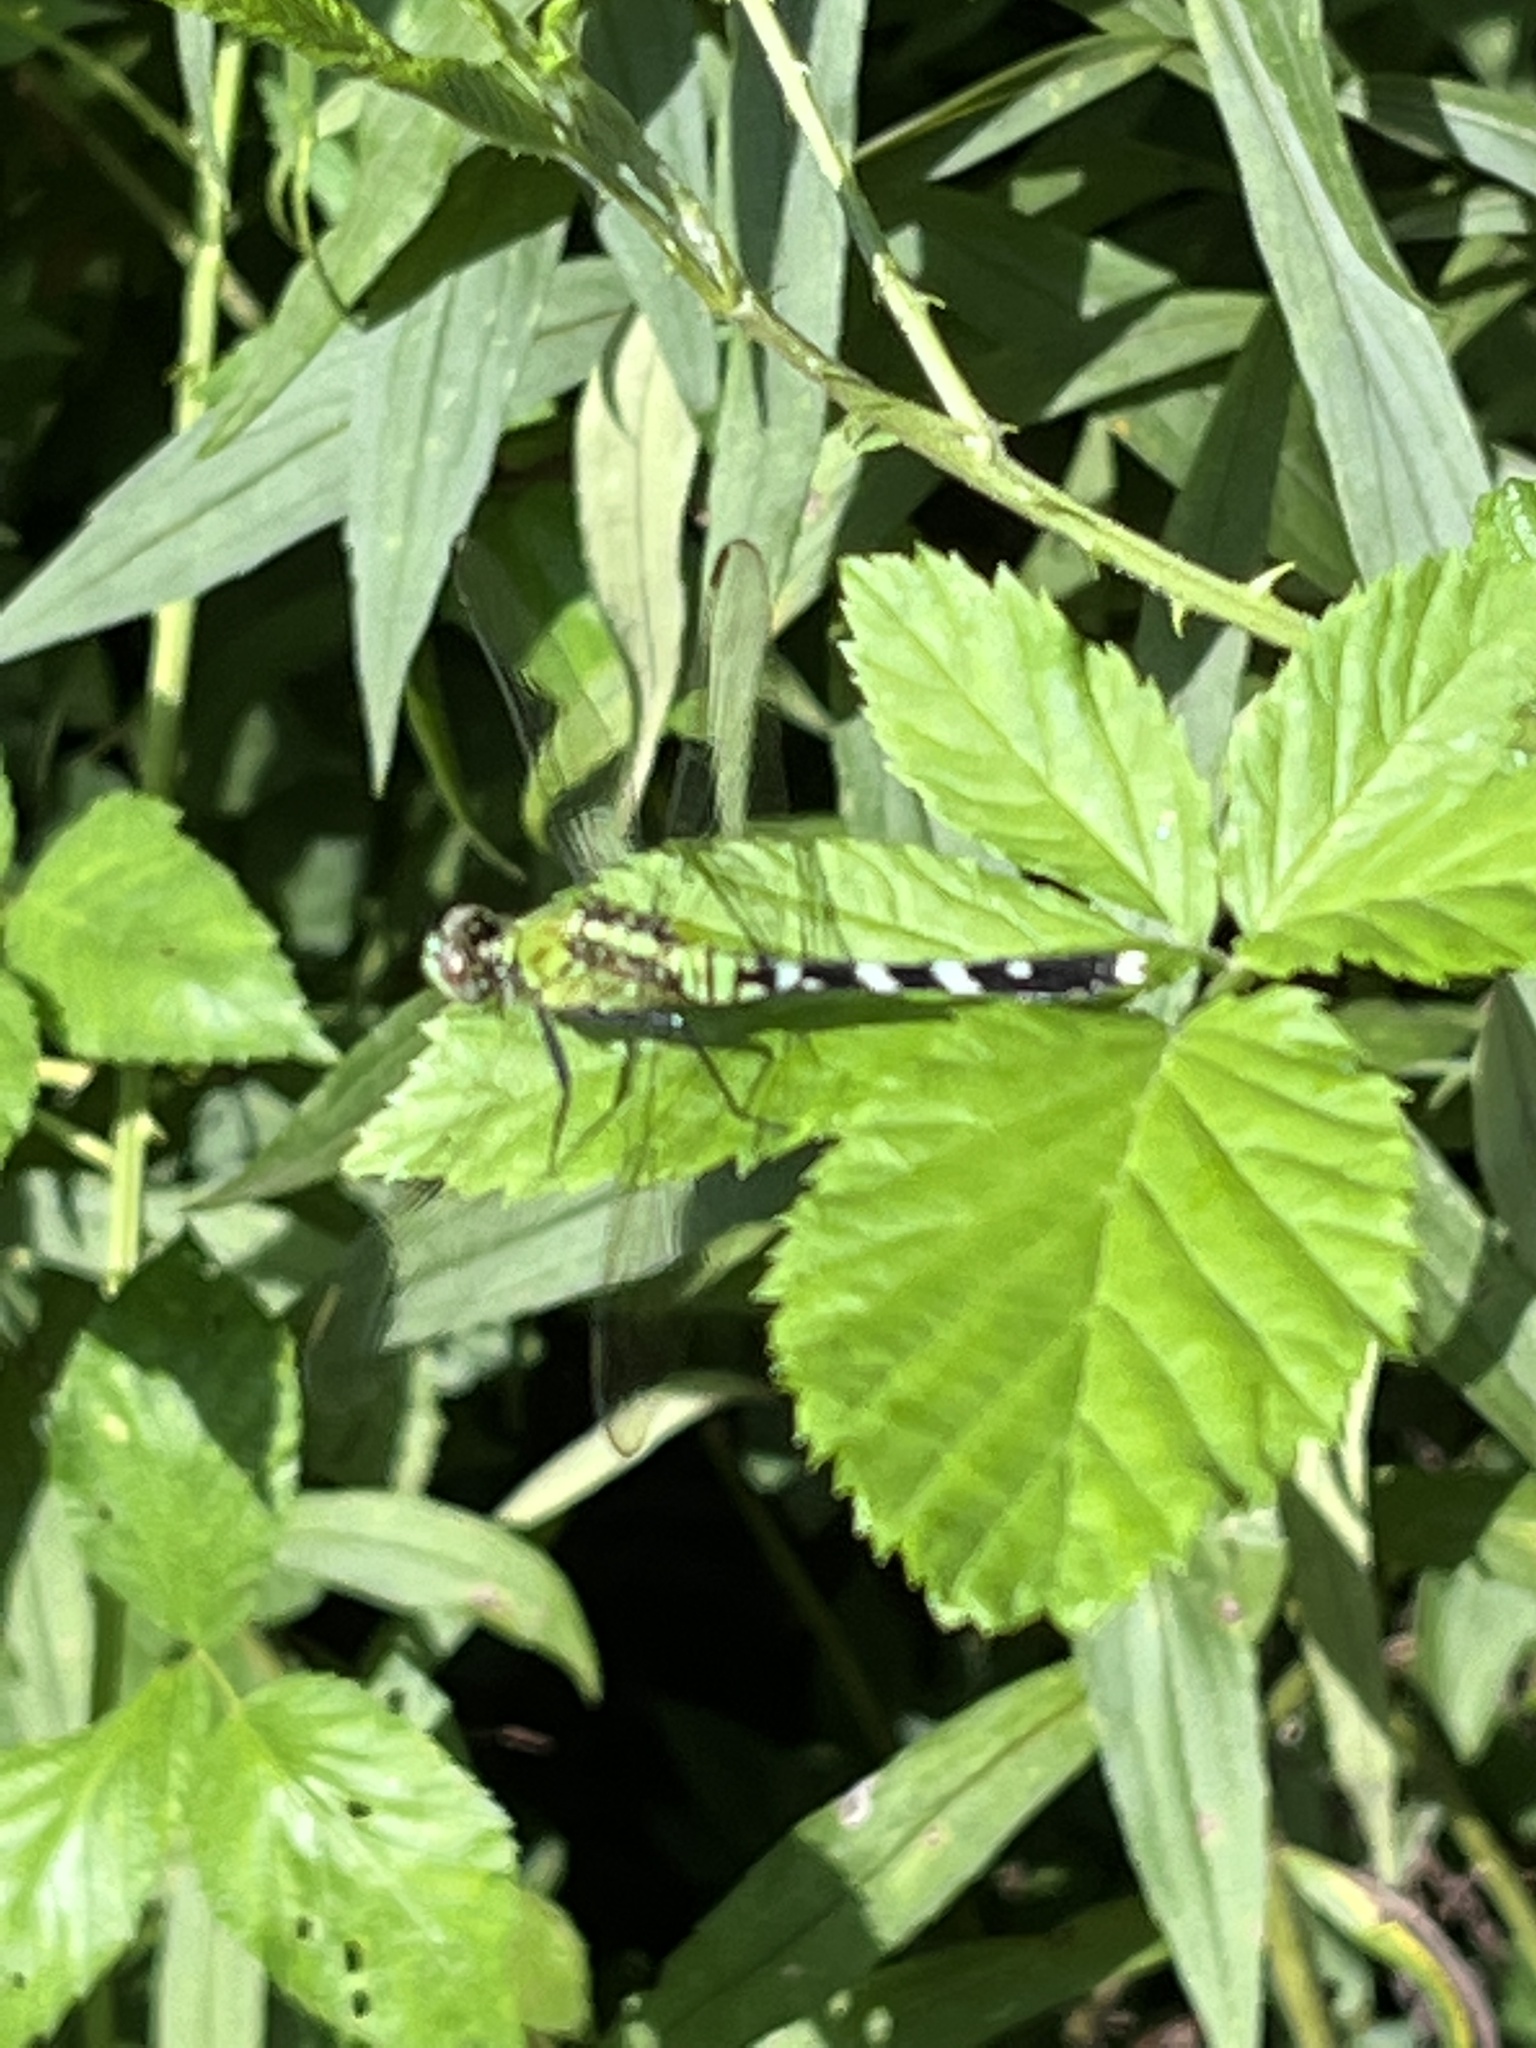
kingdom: Animalia
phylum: Arthropoda
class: Insecta
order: Odonata
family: Libellulidae
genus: Erythemis
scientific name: Erythemis simplicicollis
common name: Eastern pondhawk
